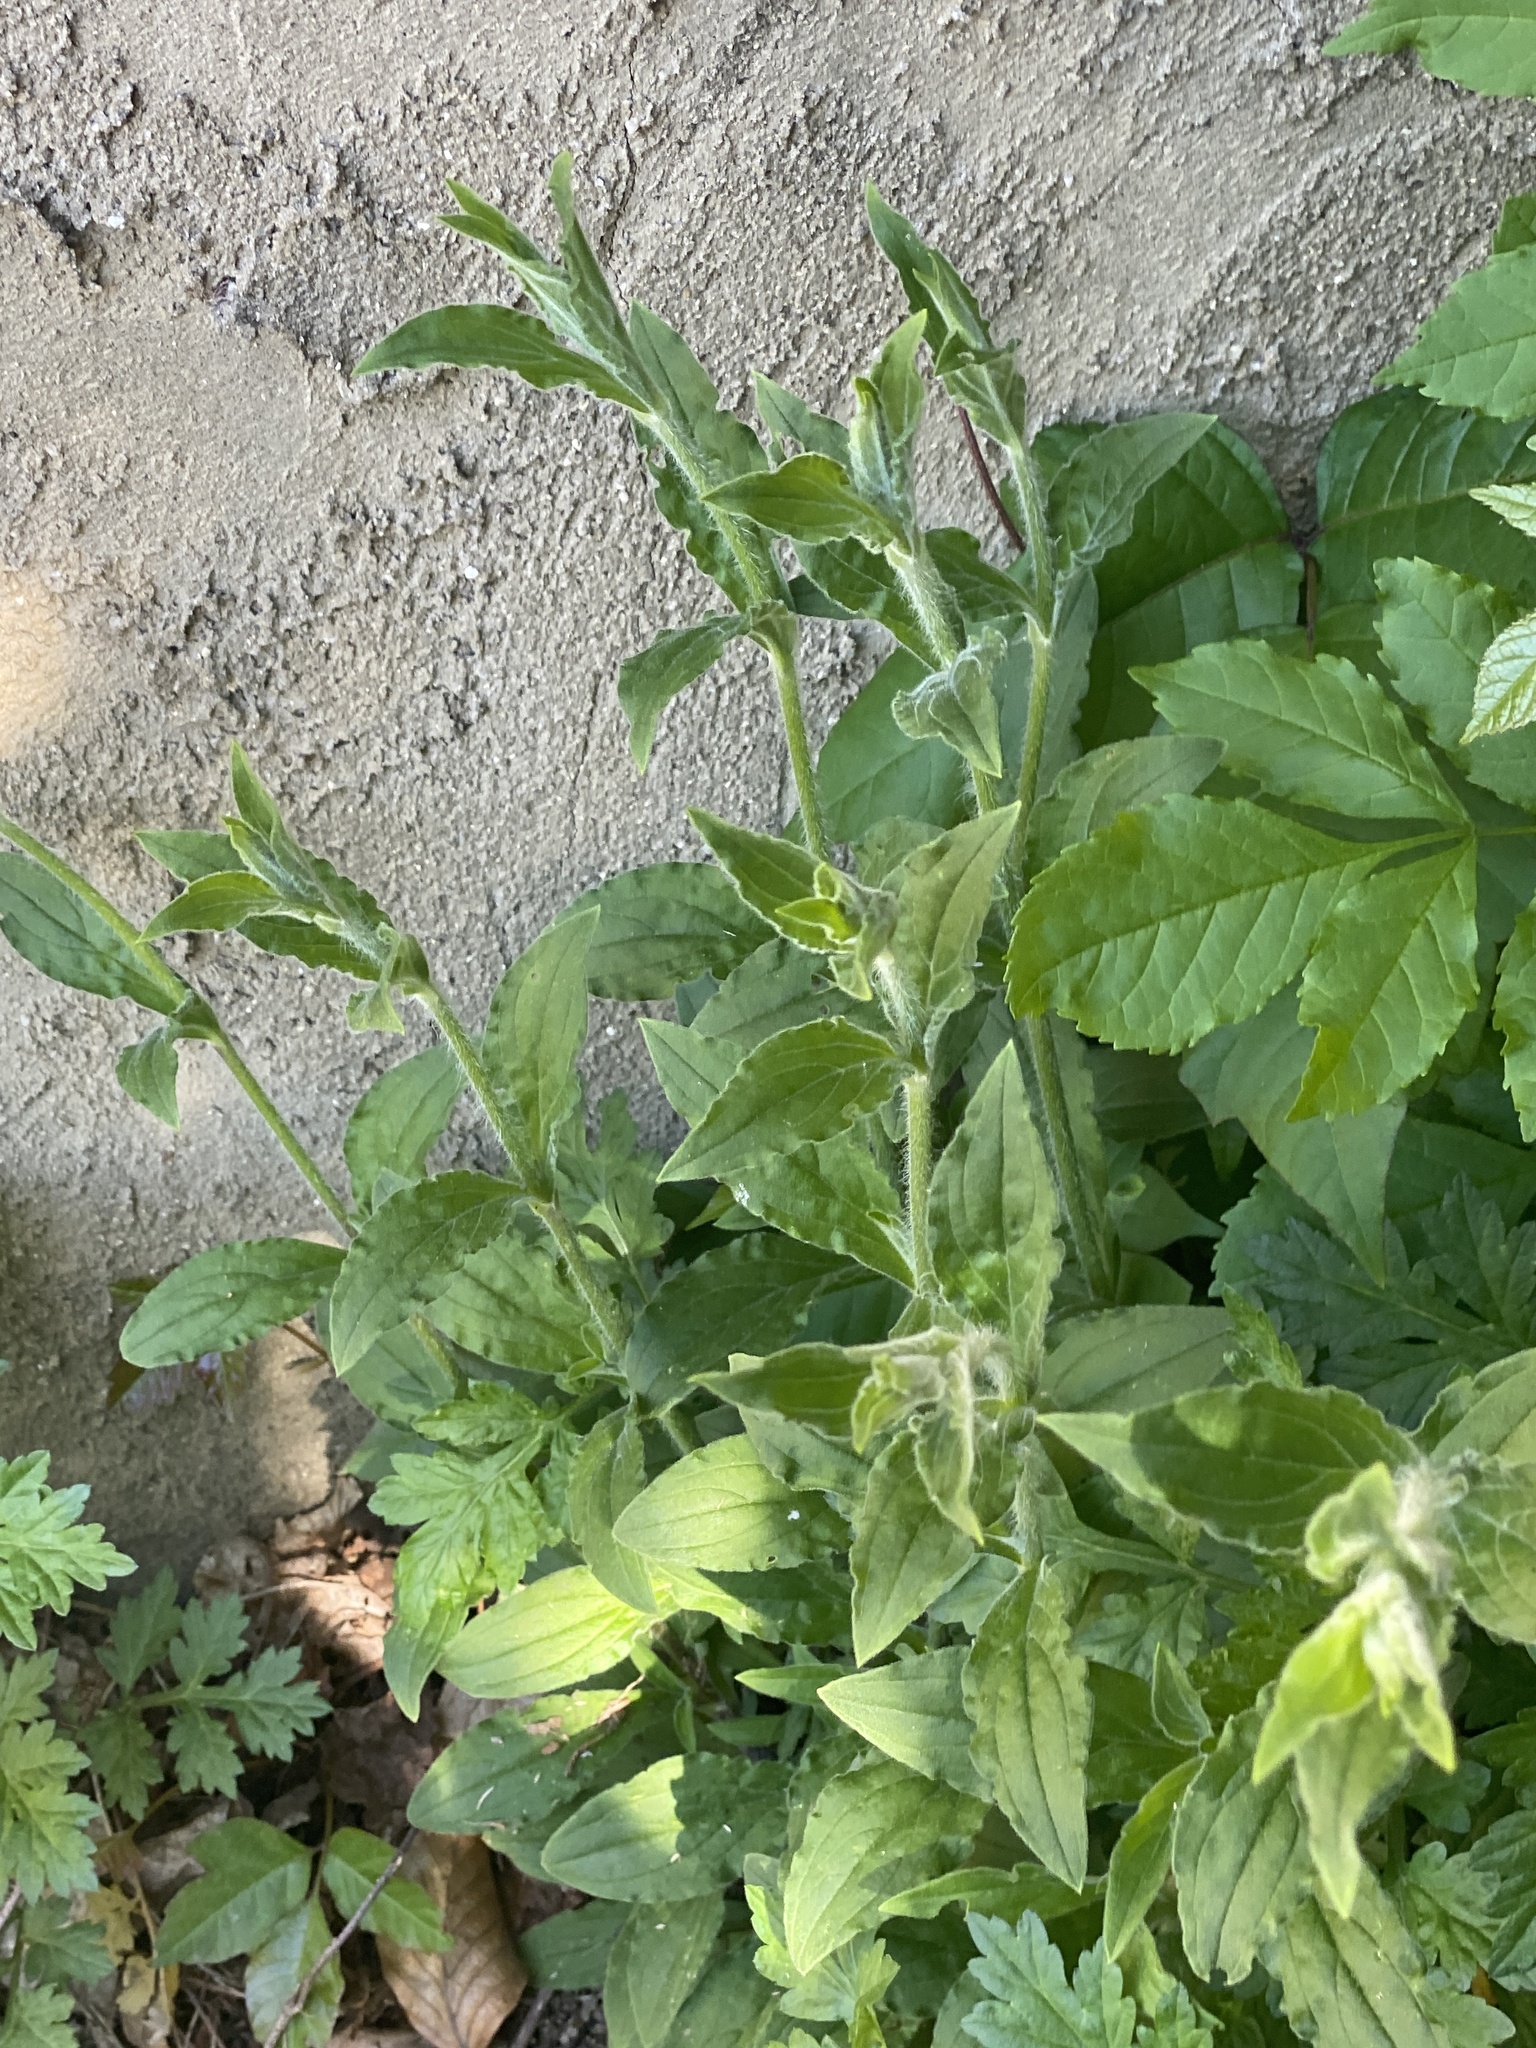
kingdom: Plantae
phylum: Tracheophyta
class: Magnoliopsida
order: Caryophyllales
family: Caryophyllaceae
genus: Silene
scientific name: Silene latifolia
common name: White campion
